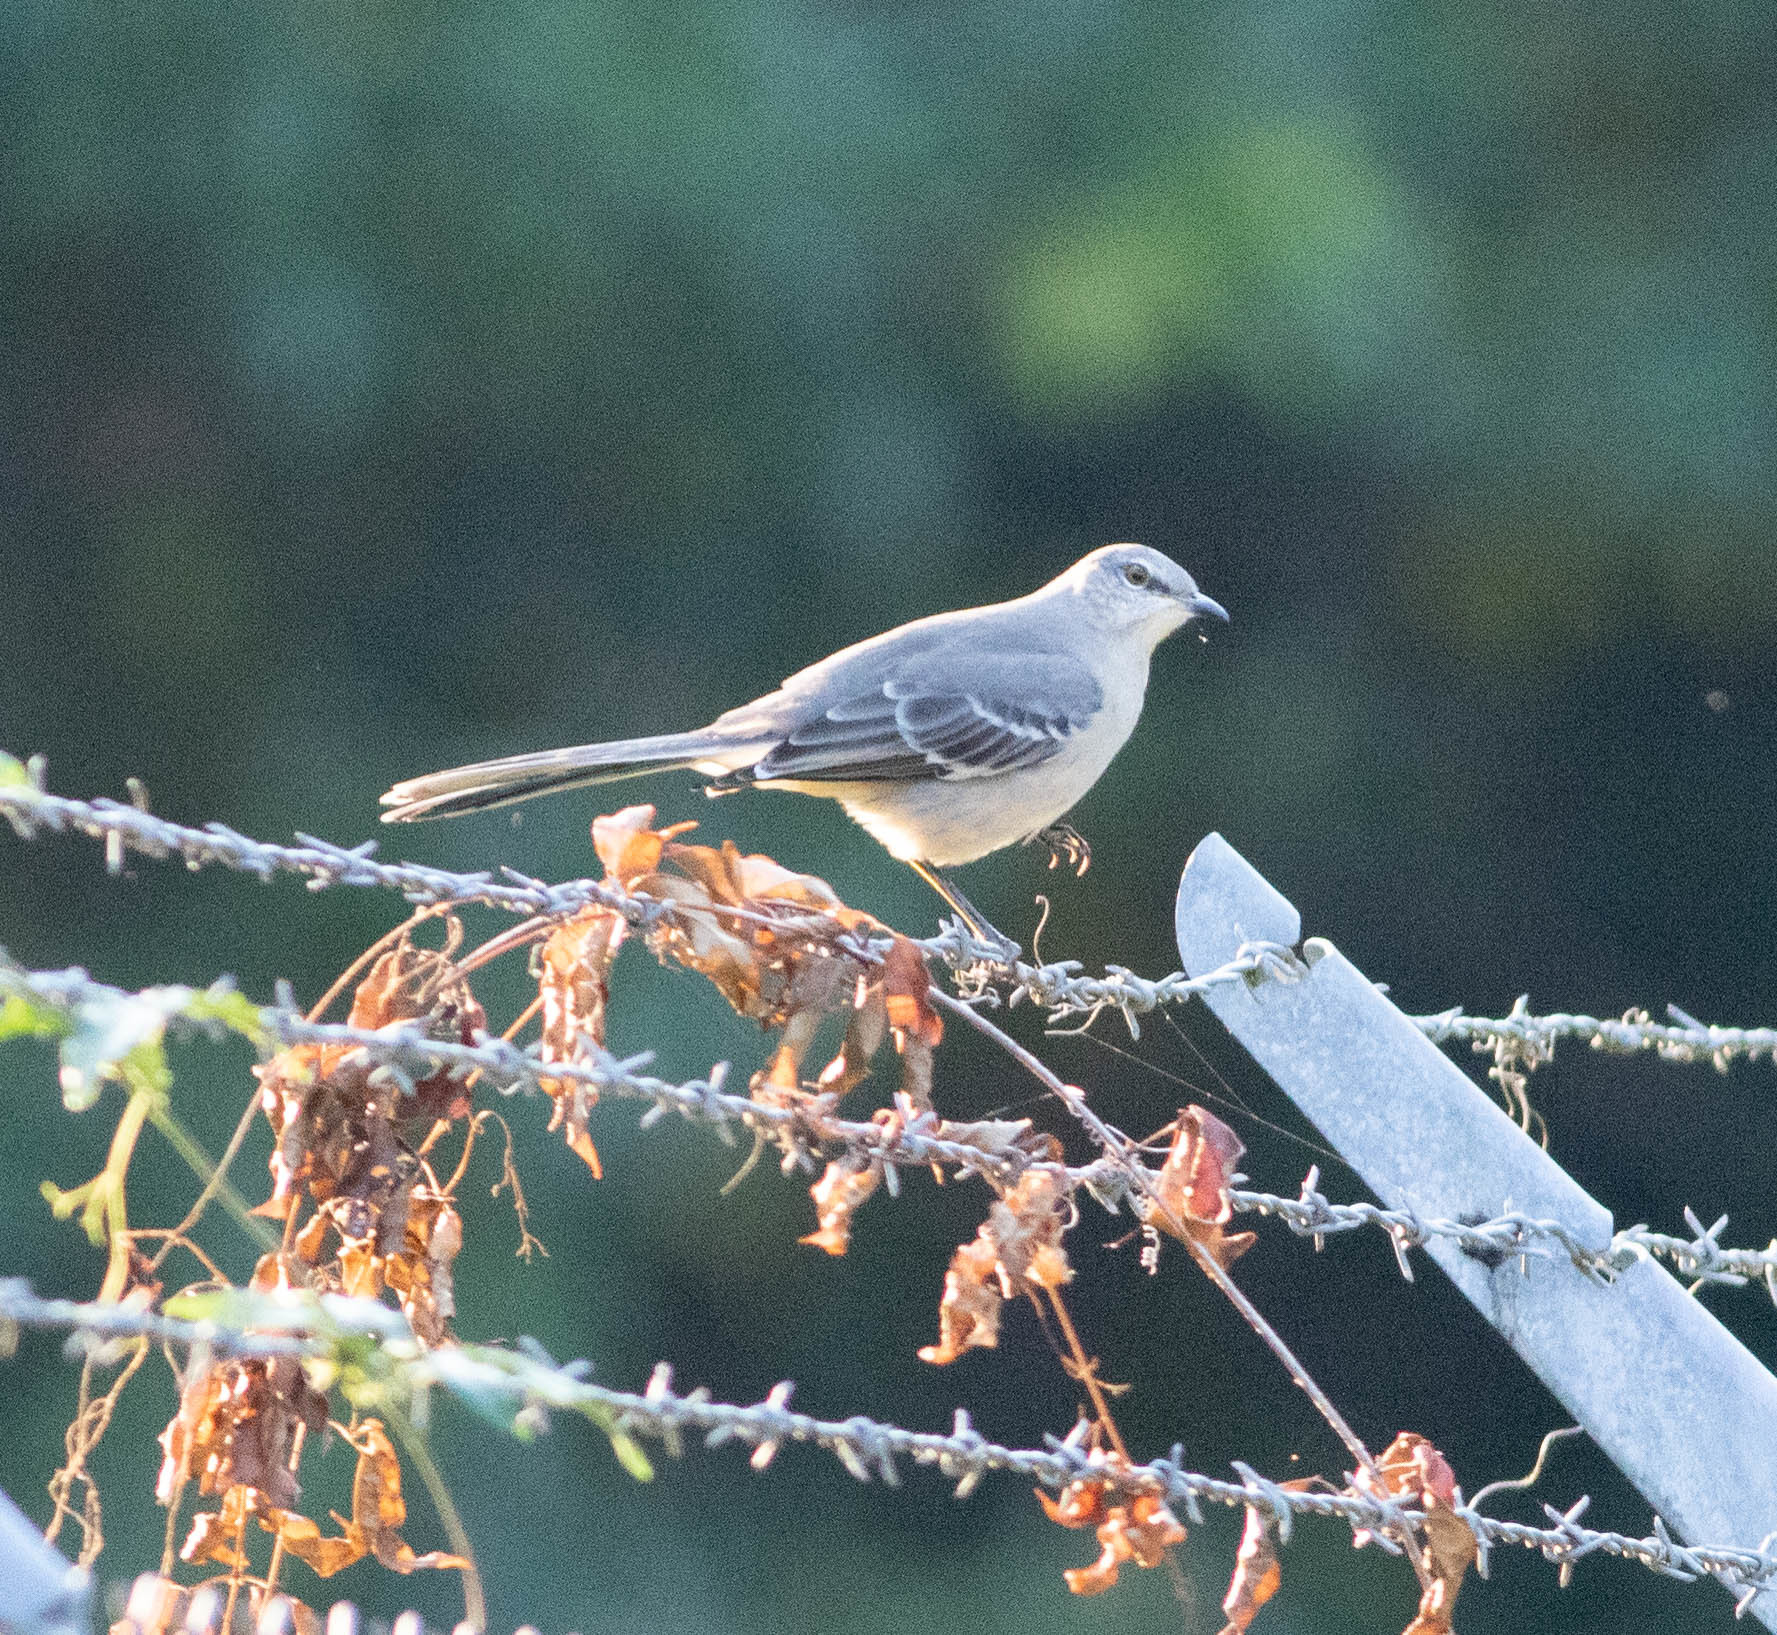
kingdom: Animalia
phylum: Chordata
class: Aves
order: Passeriformes
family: Mimidae
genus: Mimus
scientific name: Mimus polyglottos
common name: Northern mockingbird
